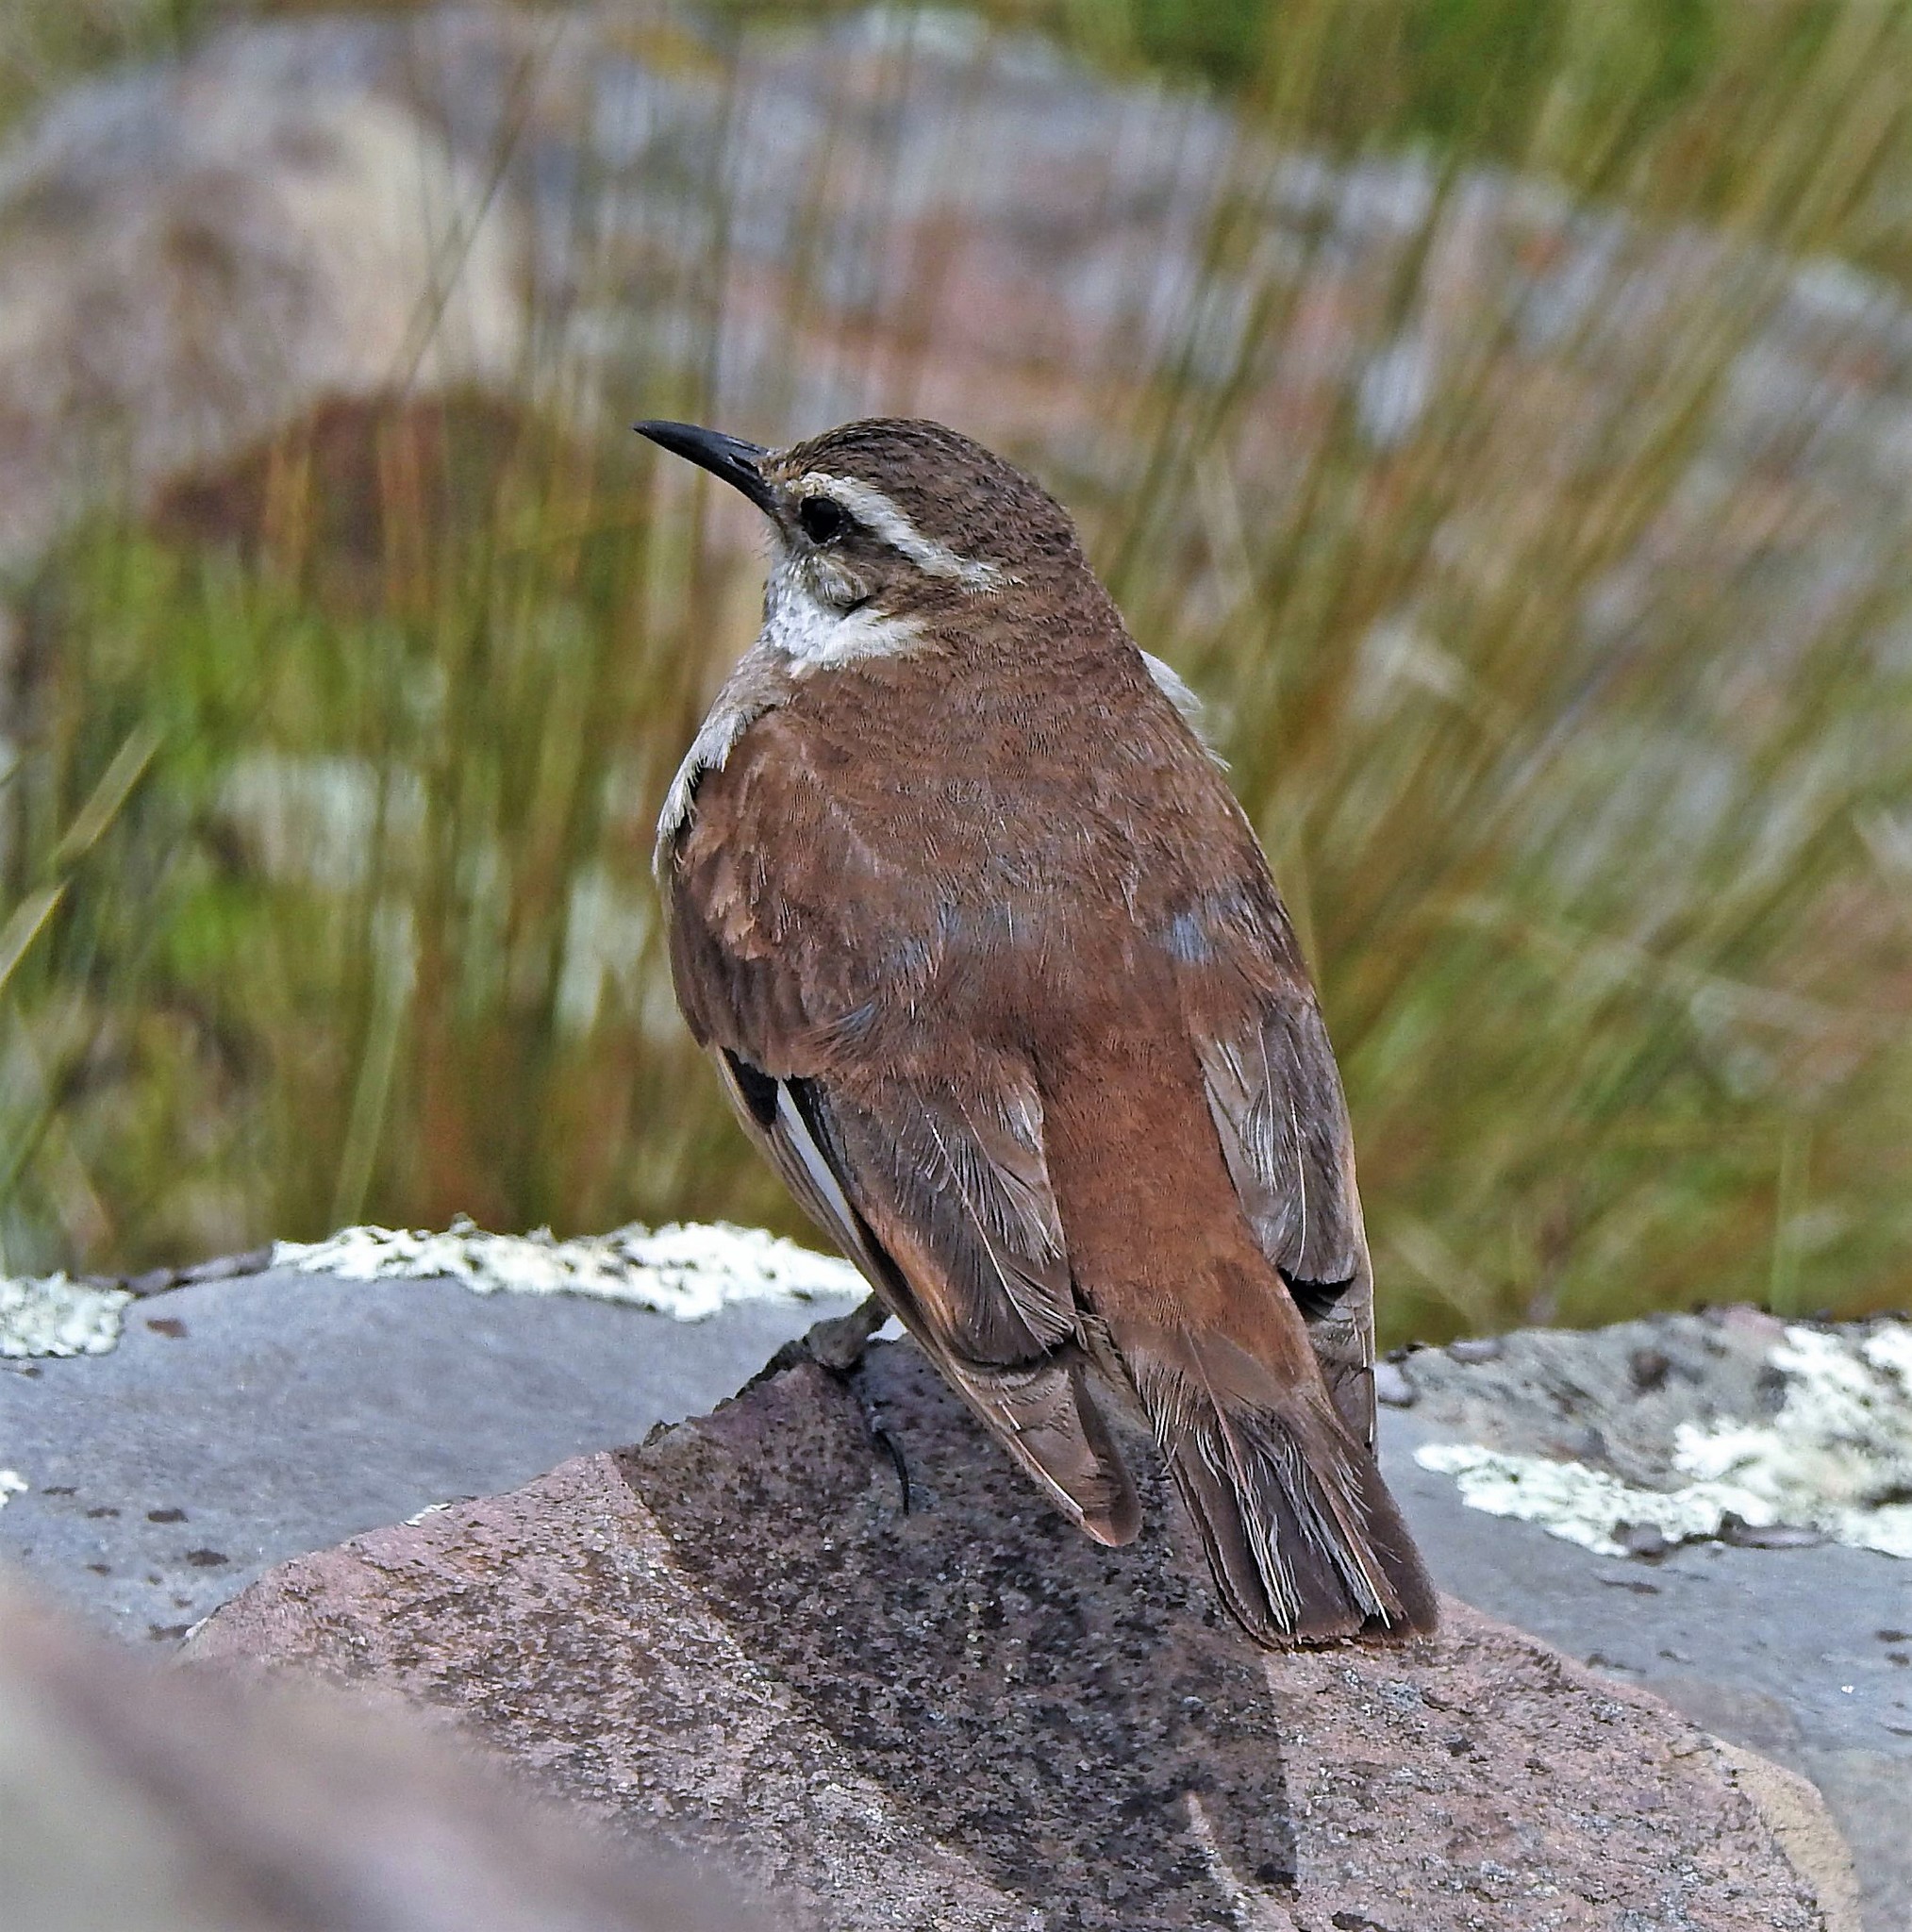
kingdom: Animalia
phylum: Chordata
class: Aves
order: Passeriformes
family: Furnariidae
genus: Cinclodes
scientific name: Cinclodes fuscus
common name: Buff-winged cinclodes
